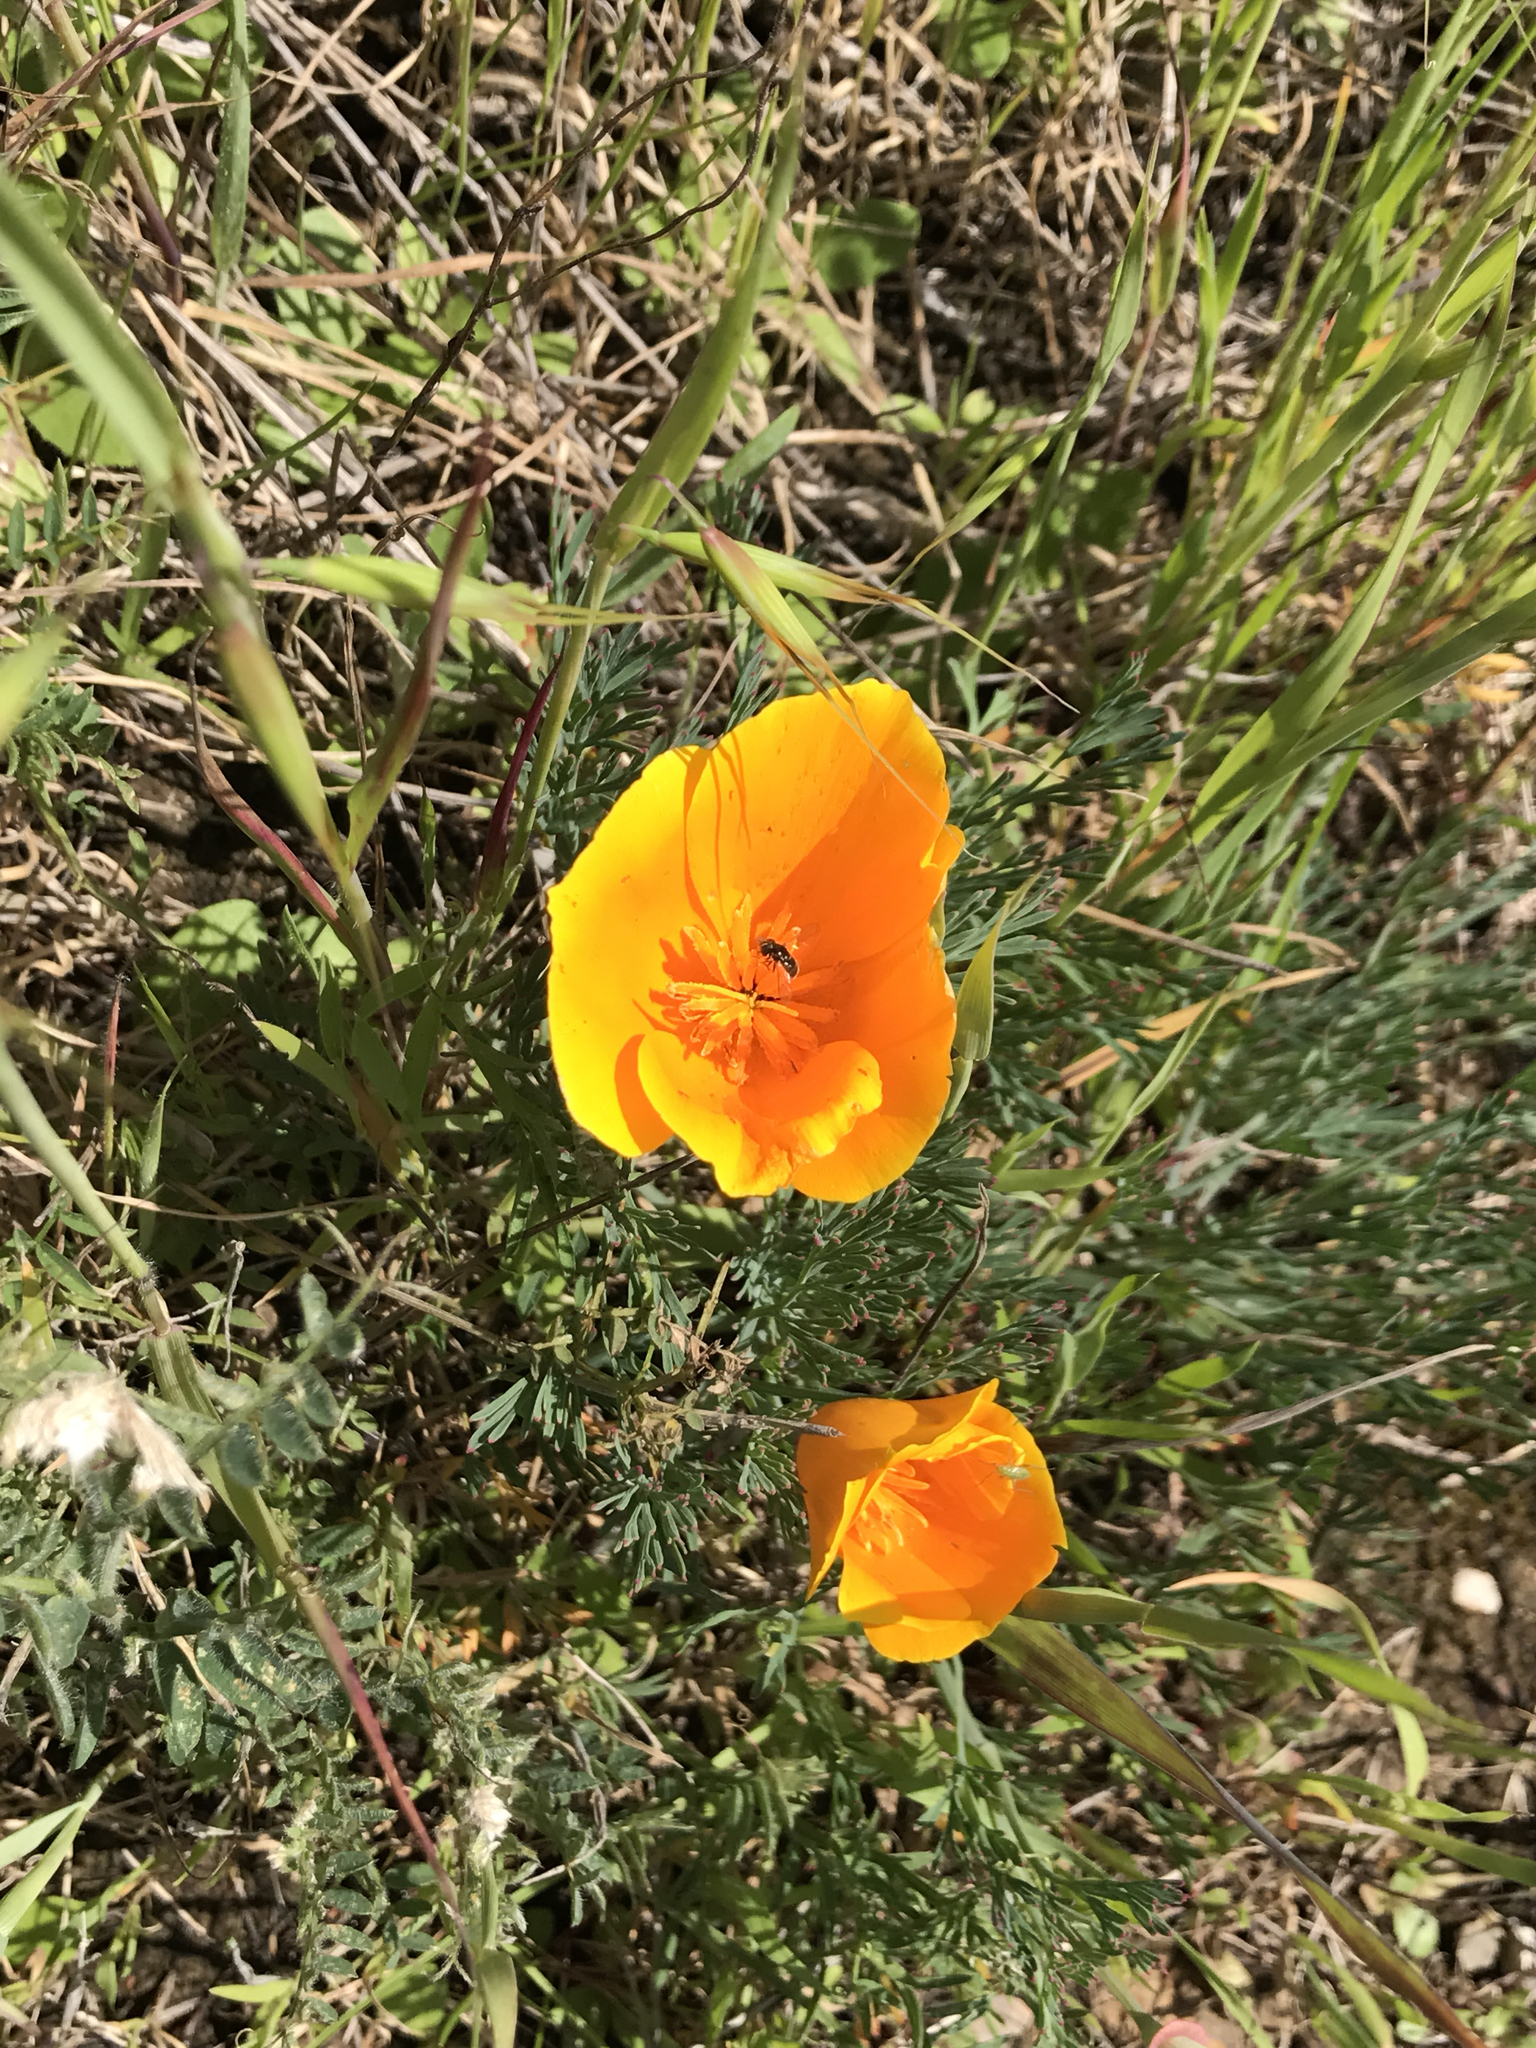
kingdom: Plantae
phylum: Tracheophyta
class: Magnoliopsida
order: Ranunculales
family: Papaveraceae
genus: Eschscholzia
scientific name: Eschscholzia californica
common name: California poppy
